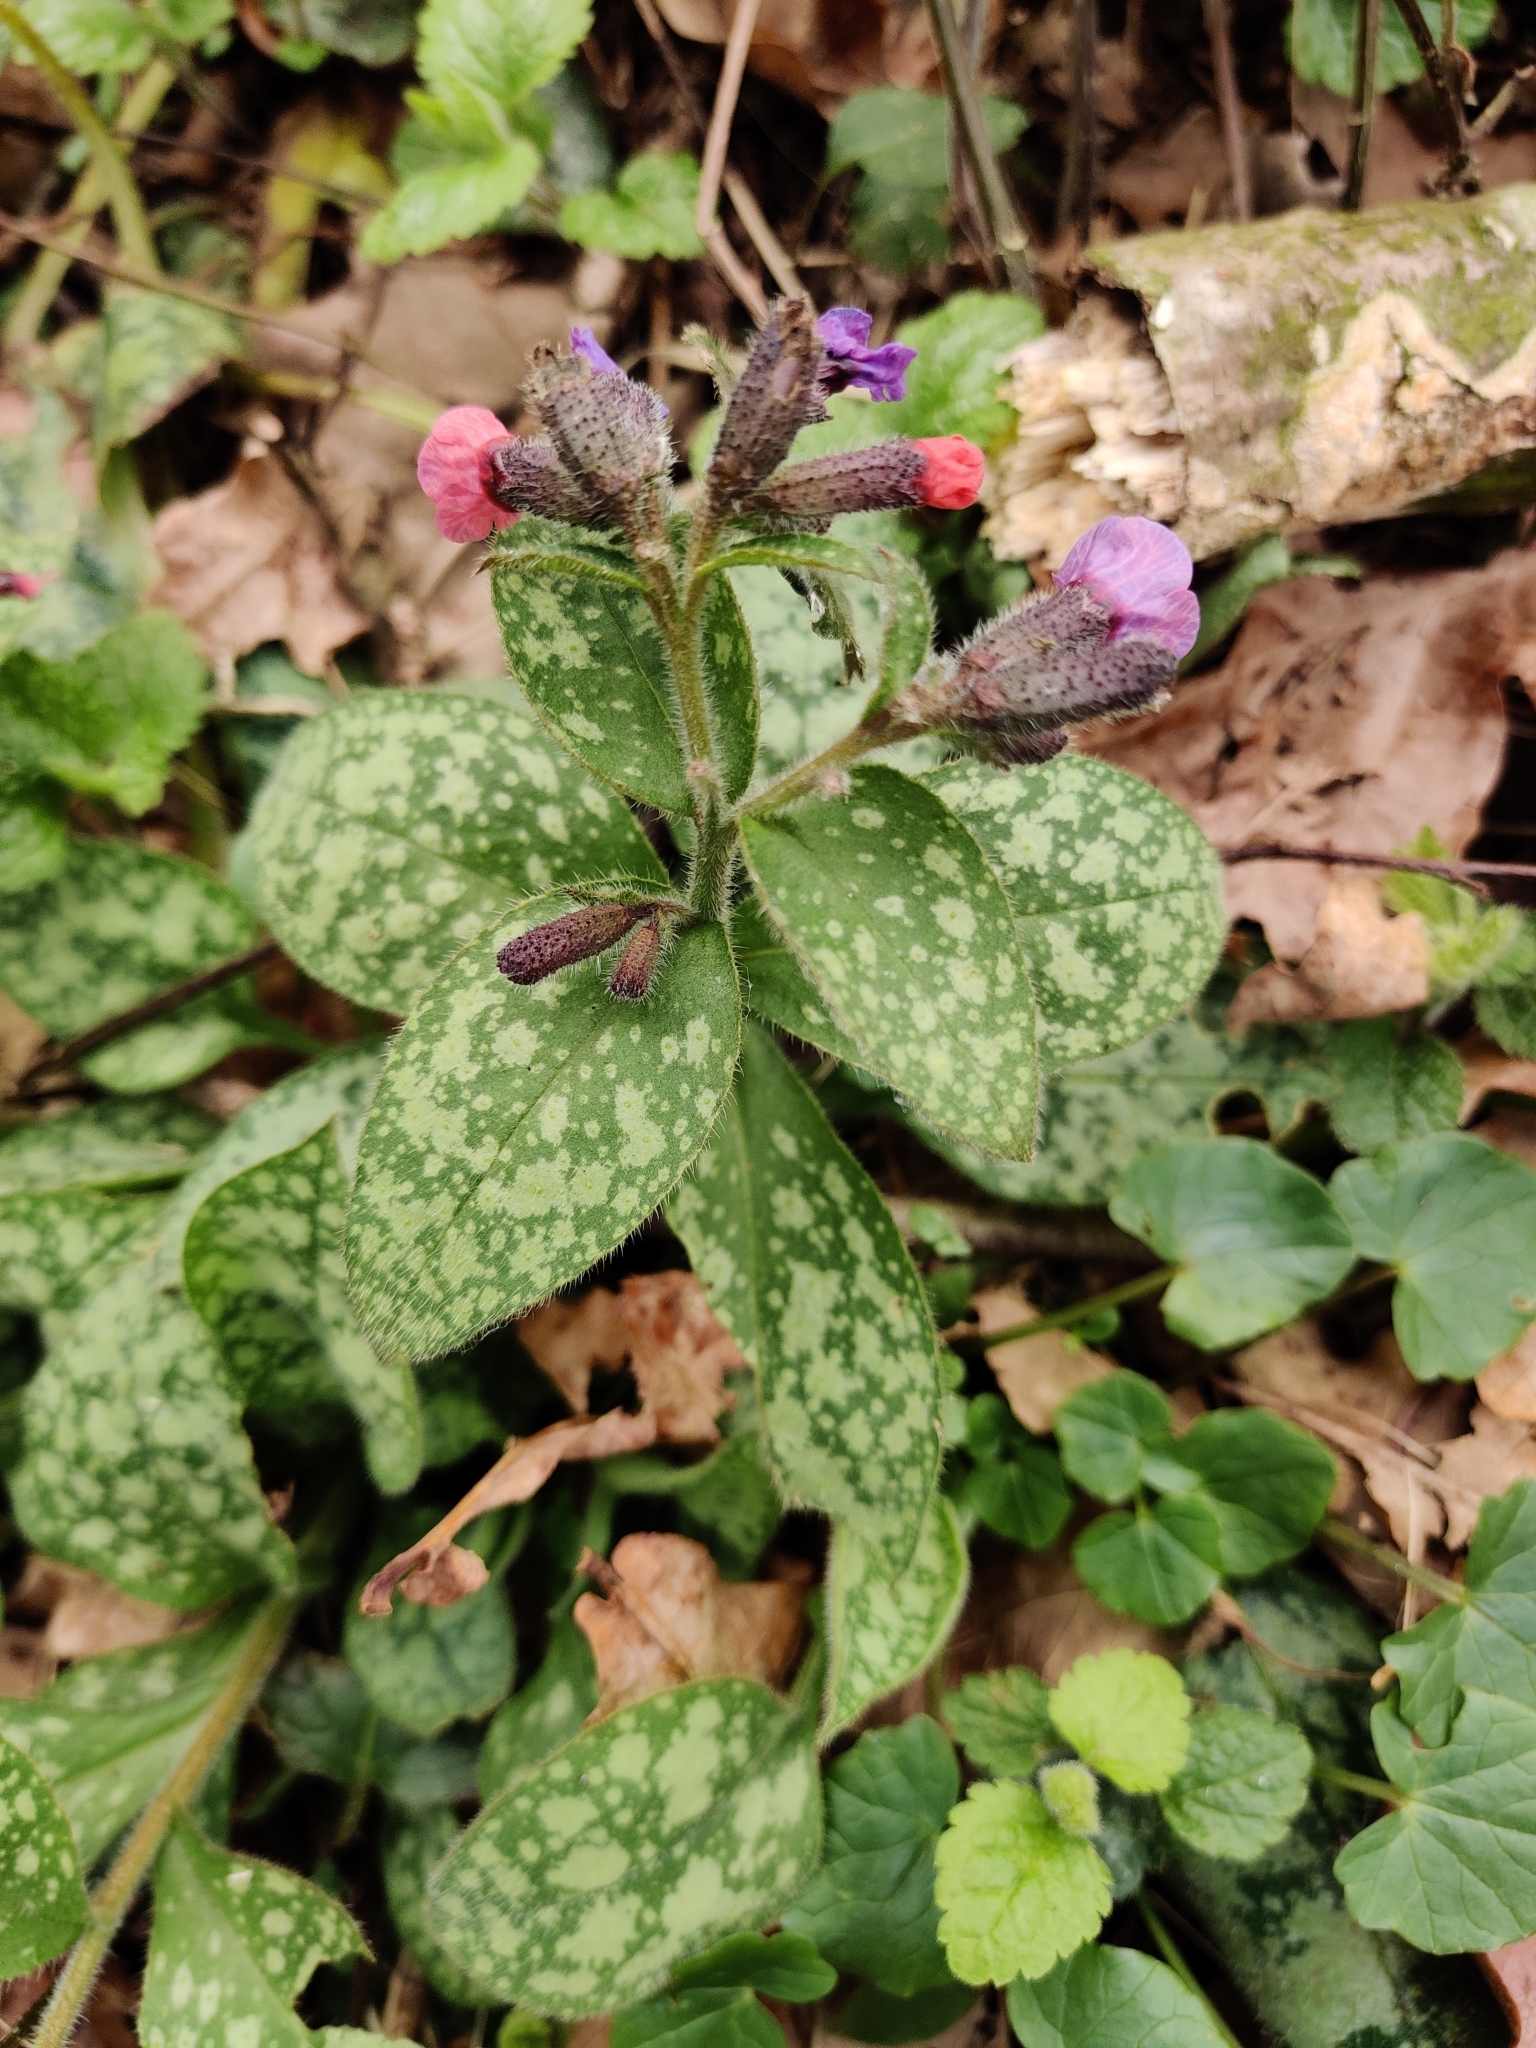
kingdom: Plantae
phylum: Tracheophyta
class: Magnoliopsida
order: Boraginales
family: Boraginaceae
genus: Pulmonaria
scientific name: Pulmonaria officinalis
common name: Lungwort
